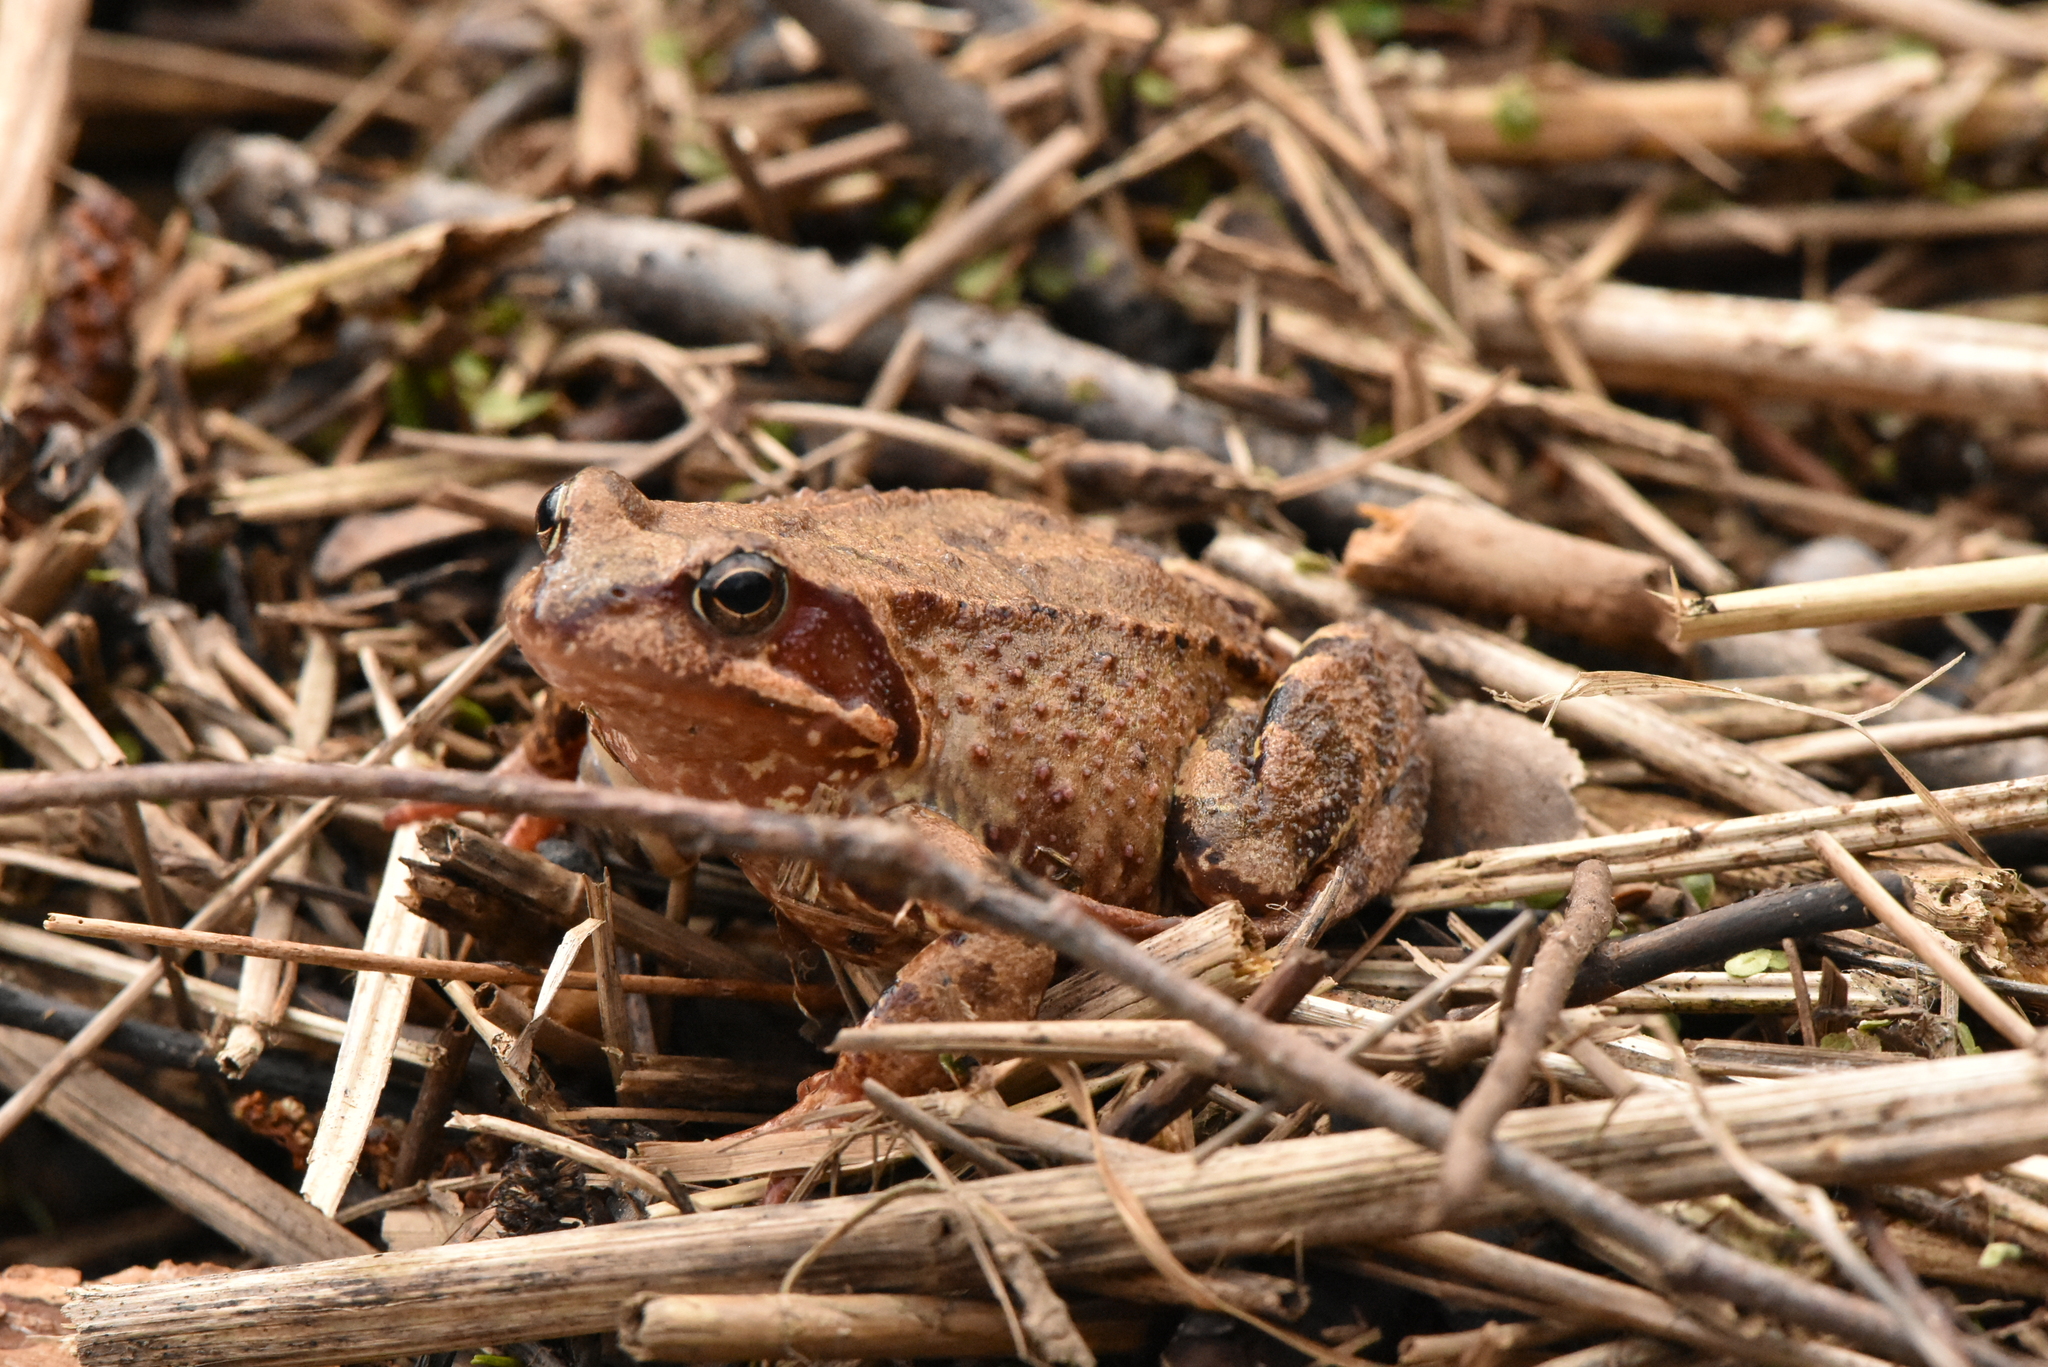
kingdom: Animalia
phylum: Chordata
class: Amphibia
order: Anura
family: Ranidae
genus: Rana
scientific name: Rana temporaria
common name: Common frog
